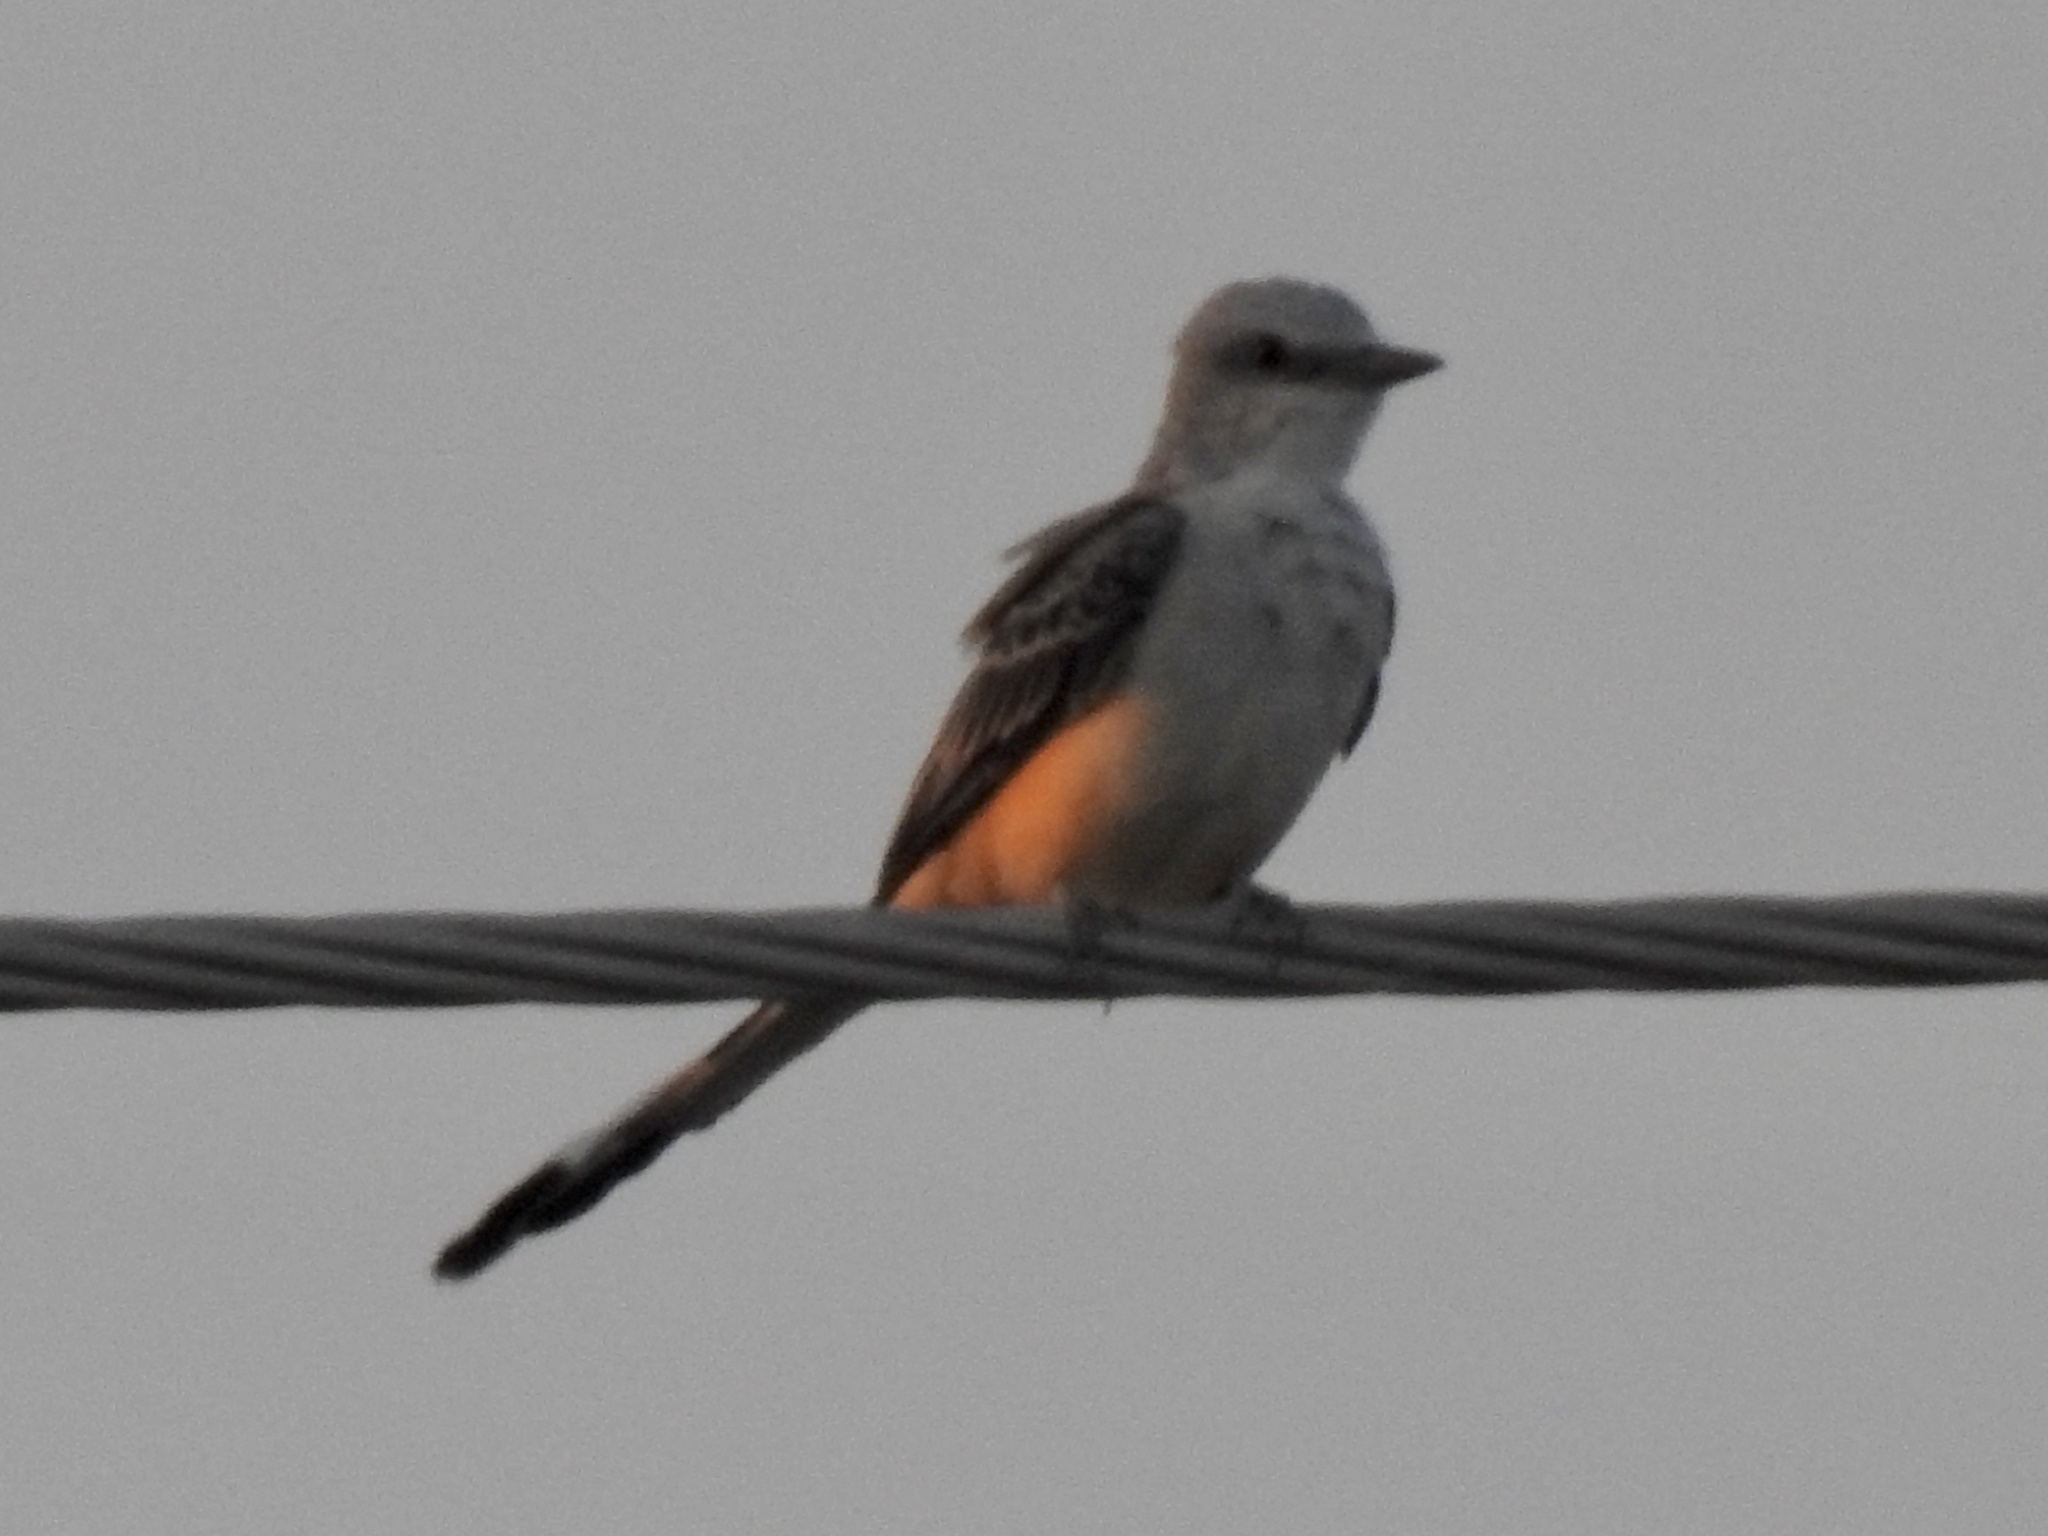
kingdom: Animalia
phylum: Chordata
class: Aves
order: Passeriformes
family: Tyrannidae
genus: Tyrannus
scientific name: Tyrannus forficatus
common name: Scissor-tailed flycatcher
